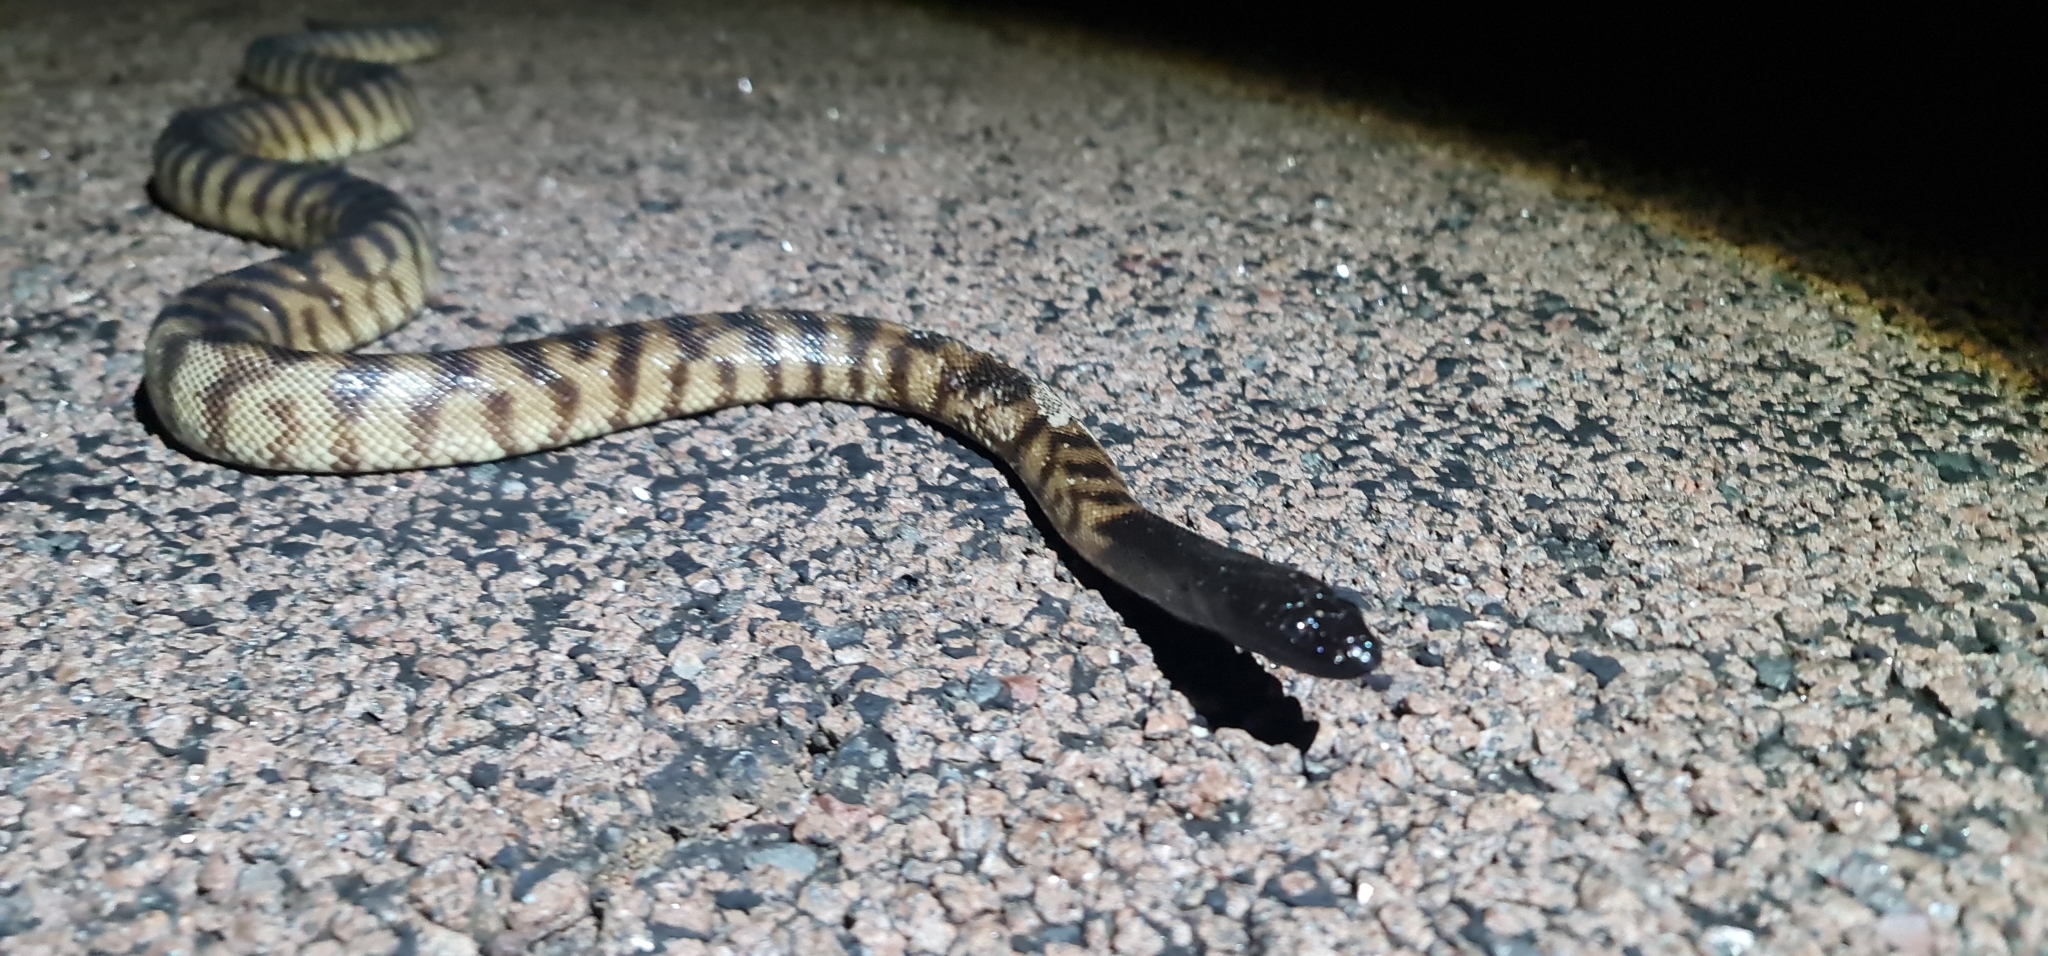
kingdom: Animalia
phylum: Chordata
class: Squamata
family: Pythonidae
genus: Aspidites
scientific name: Aspidites melanocephalus
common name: Black-headed python
